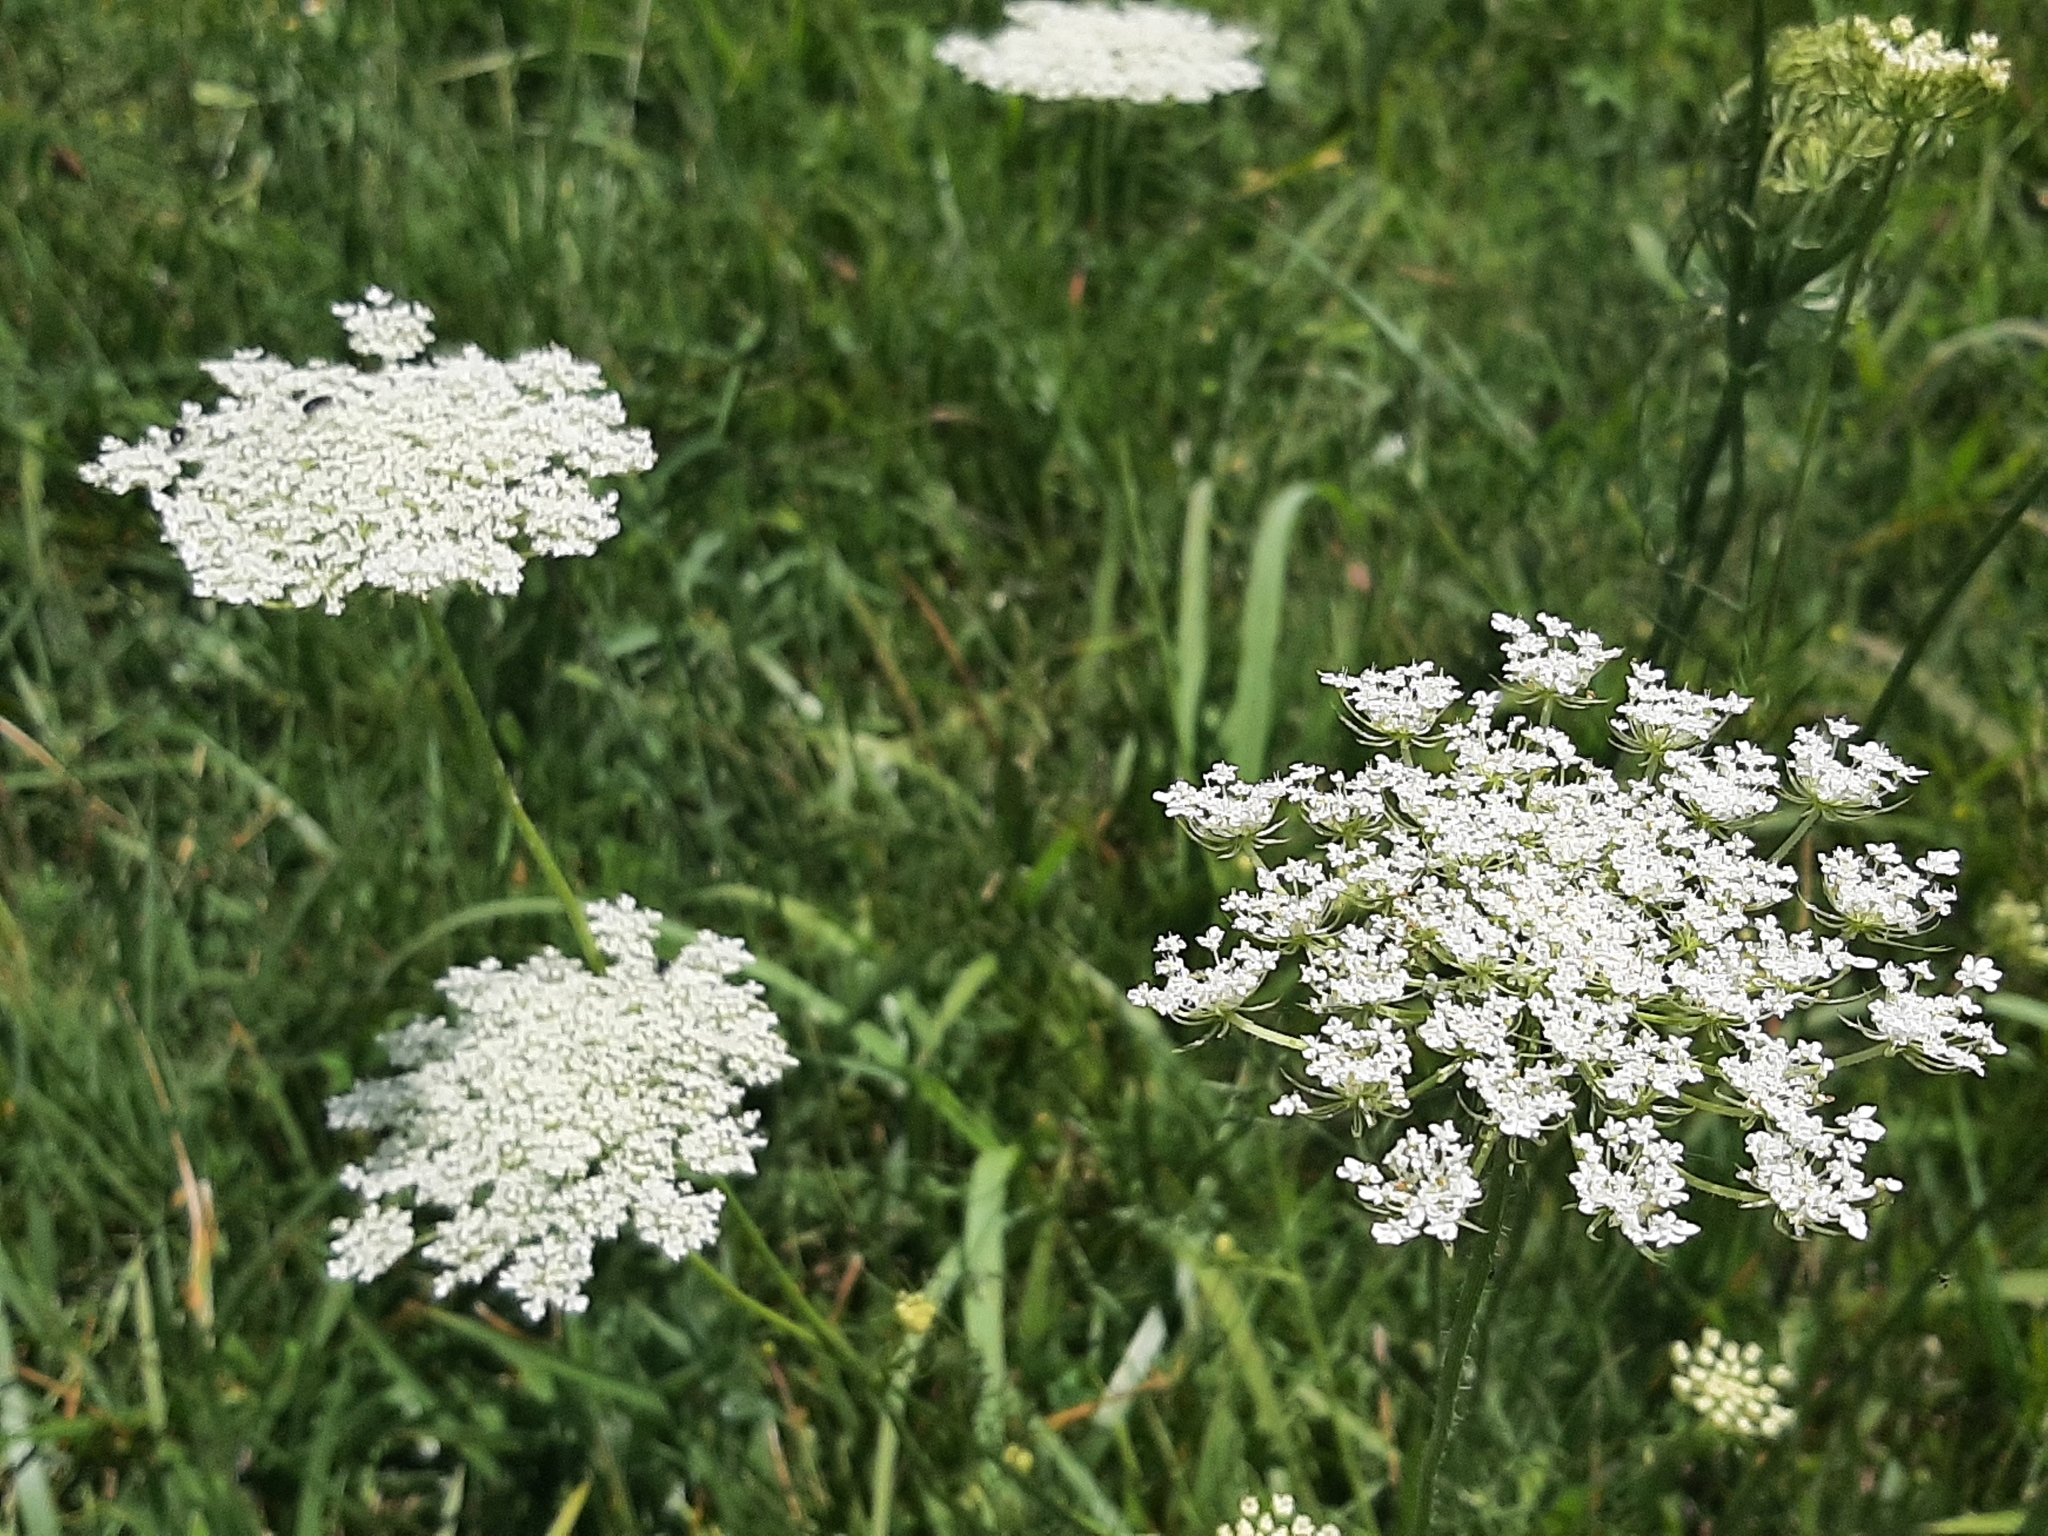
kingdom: Plantae
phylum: Tracheophyta
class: Magnoliopsida
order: Apiales
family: Apiaceae
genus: Daucus
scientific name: Daucus carota
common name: Wild carrot
